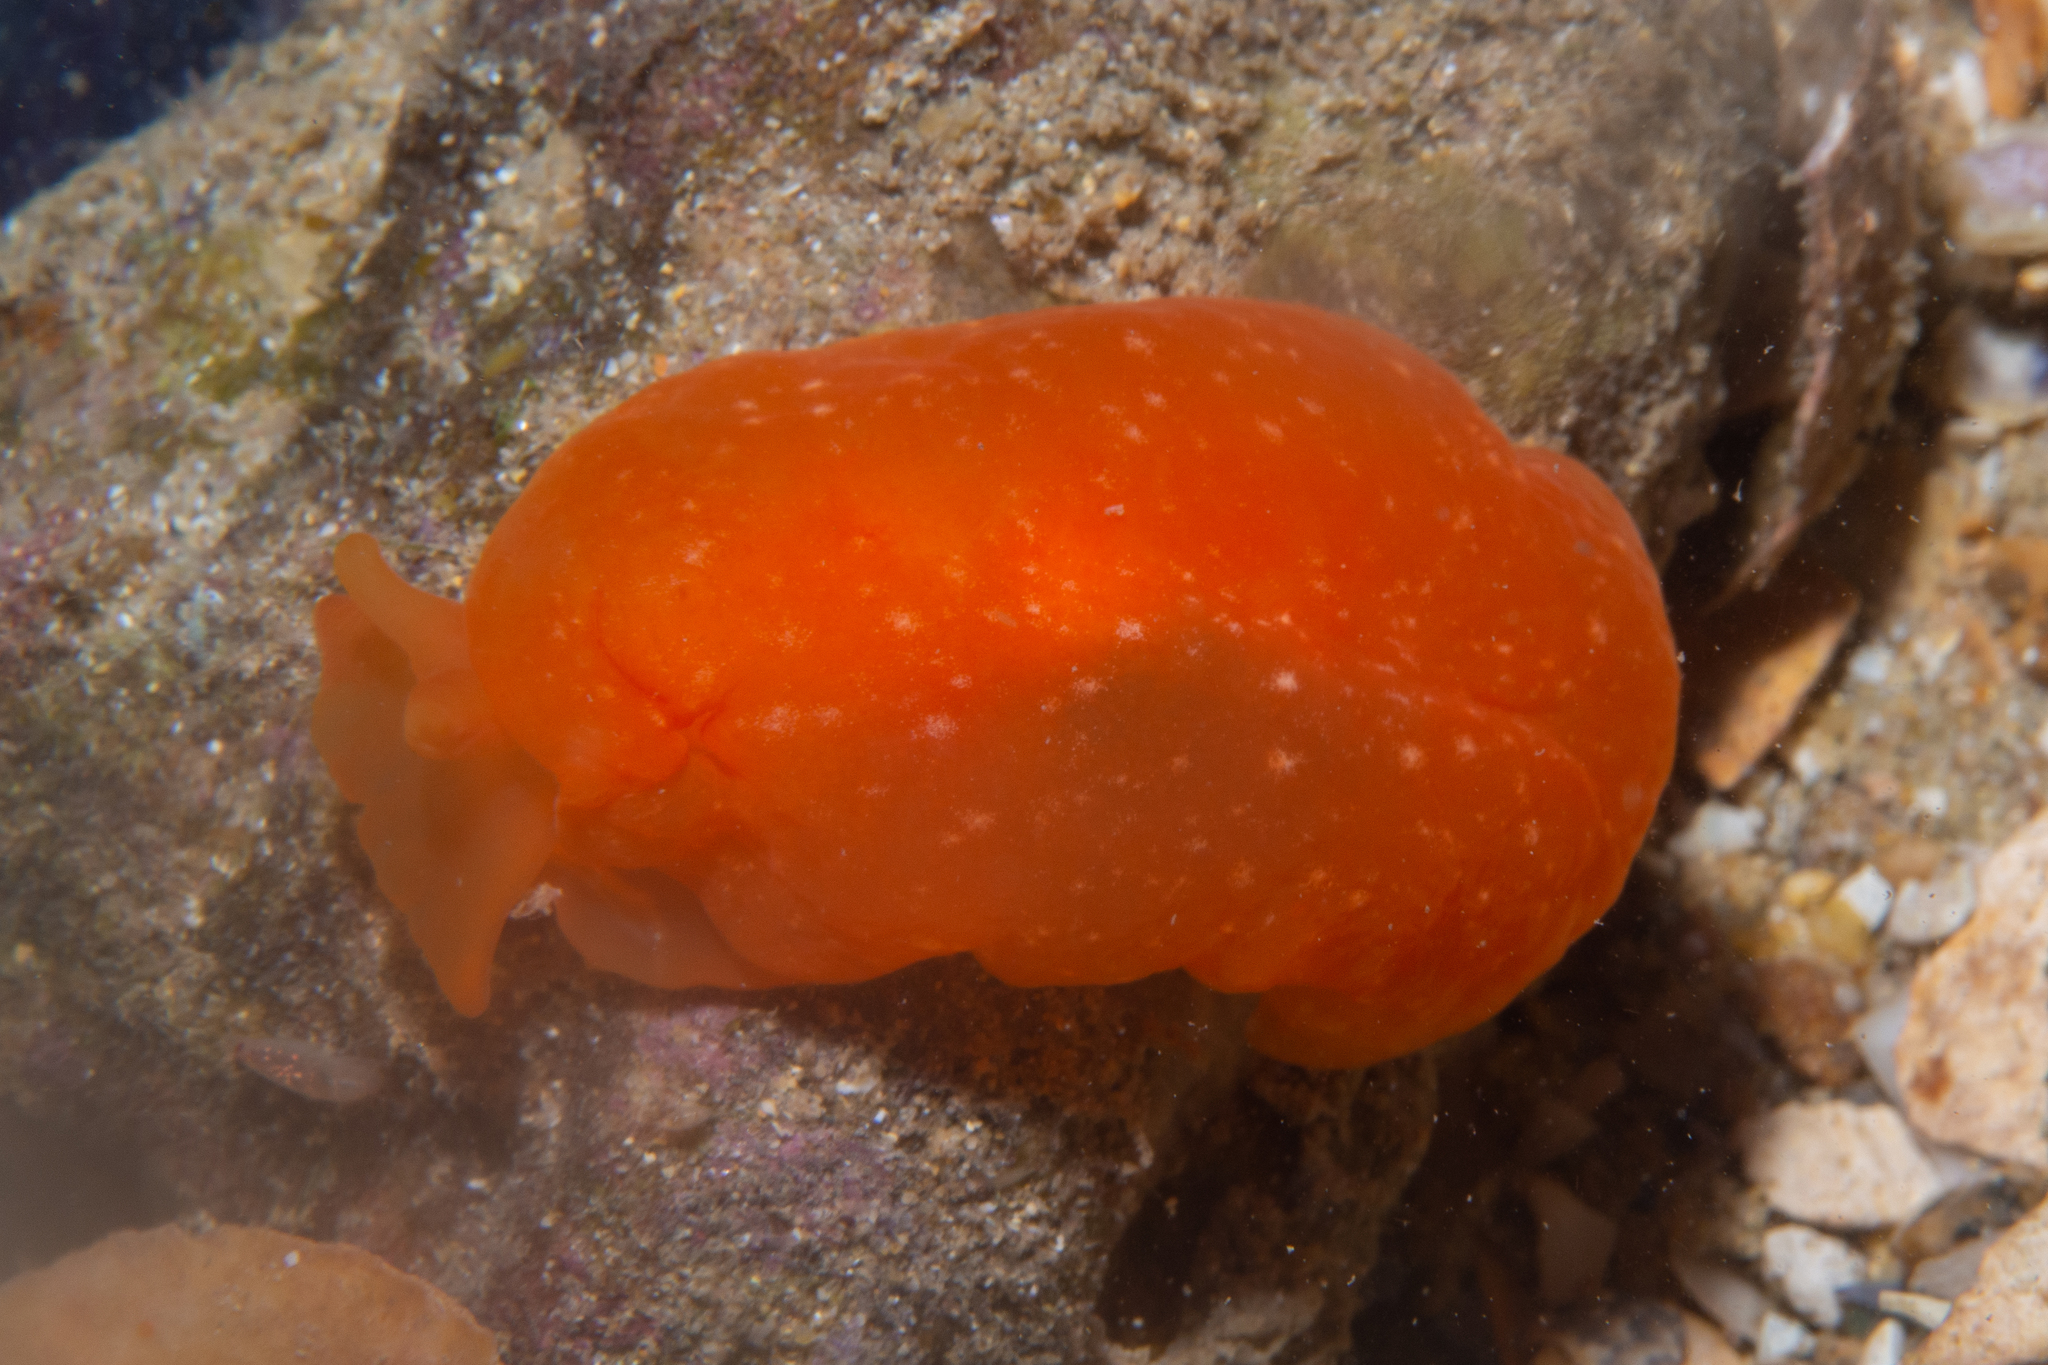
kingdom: Animalia
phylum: Mollusca
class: Gastropoda
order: Pleurobranchida
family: Pleurobranchidae
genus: Berthellina
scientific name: Berthellina citrina
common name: Lemon pleurobranch
